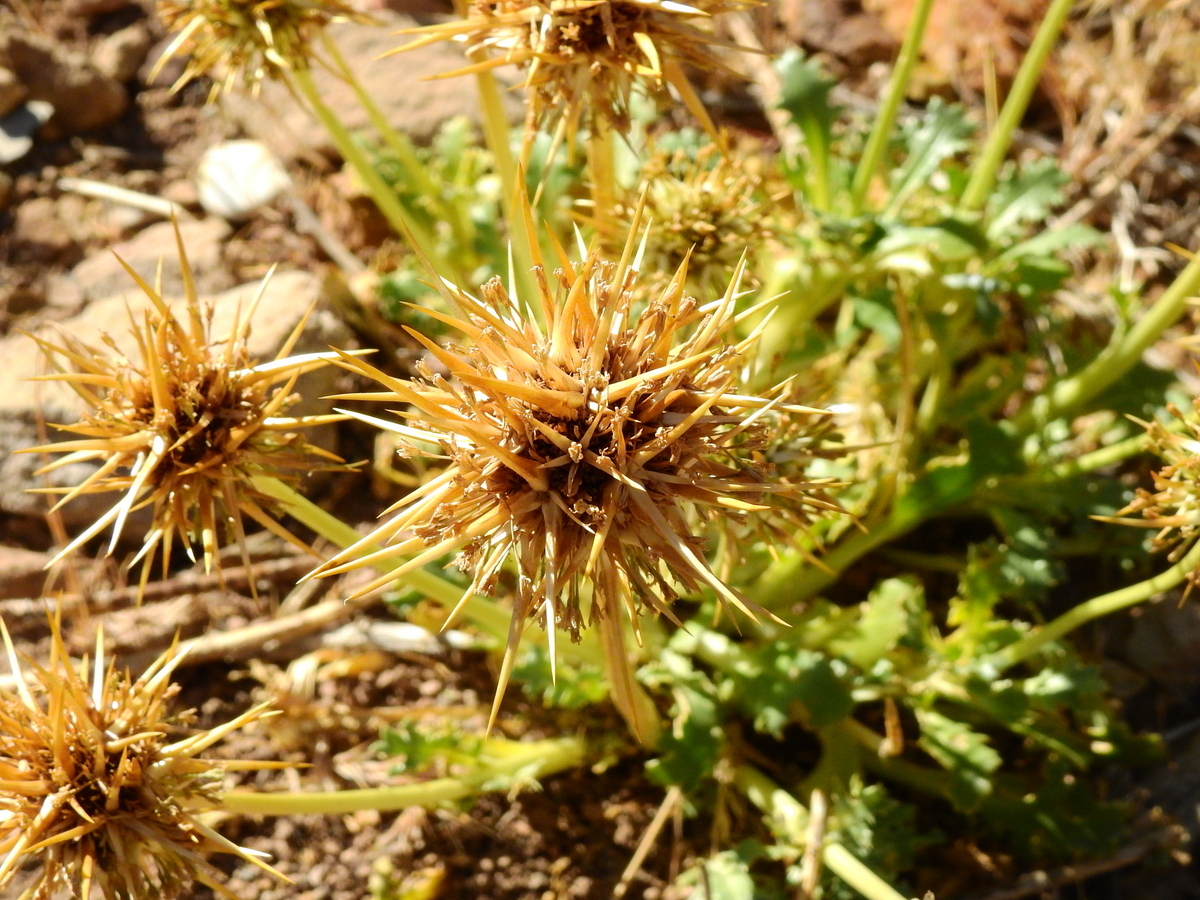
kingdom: Plantae
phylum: Tracheophyta
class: Magnoliopsida
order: Asterales
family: Calyceraceae
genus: Calycera
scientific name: Calycera herbacea
